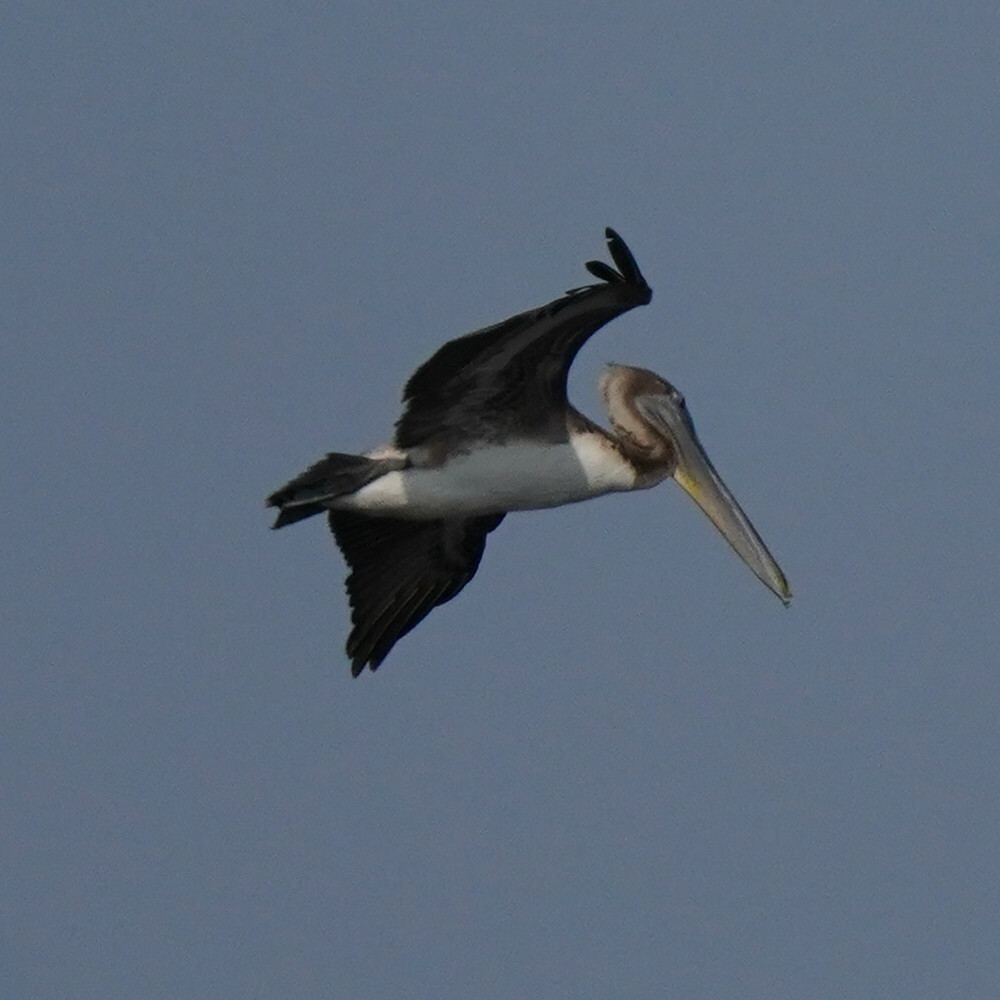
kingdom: Animalia
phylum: Chordata
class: Aves
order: Pelecaniformes
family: Pelecanidae
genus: Pelecanus
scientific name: Pelecanus occidentalis
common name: Brown pelican
